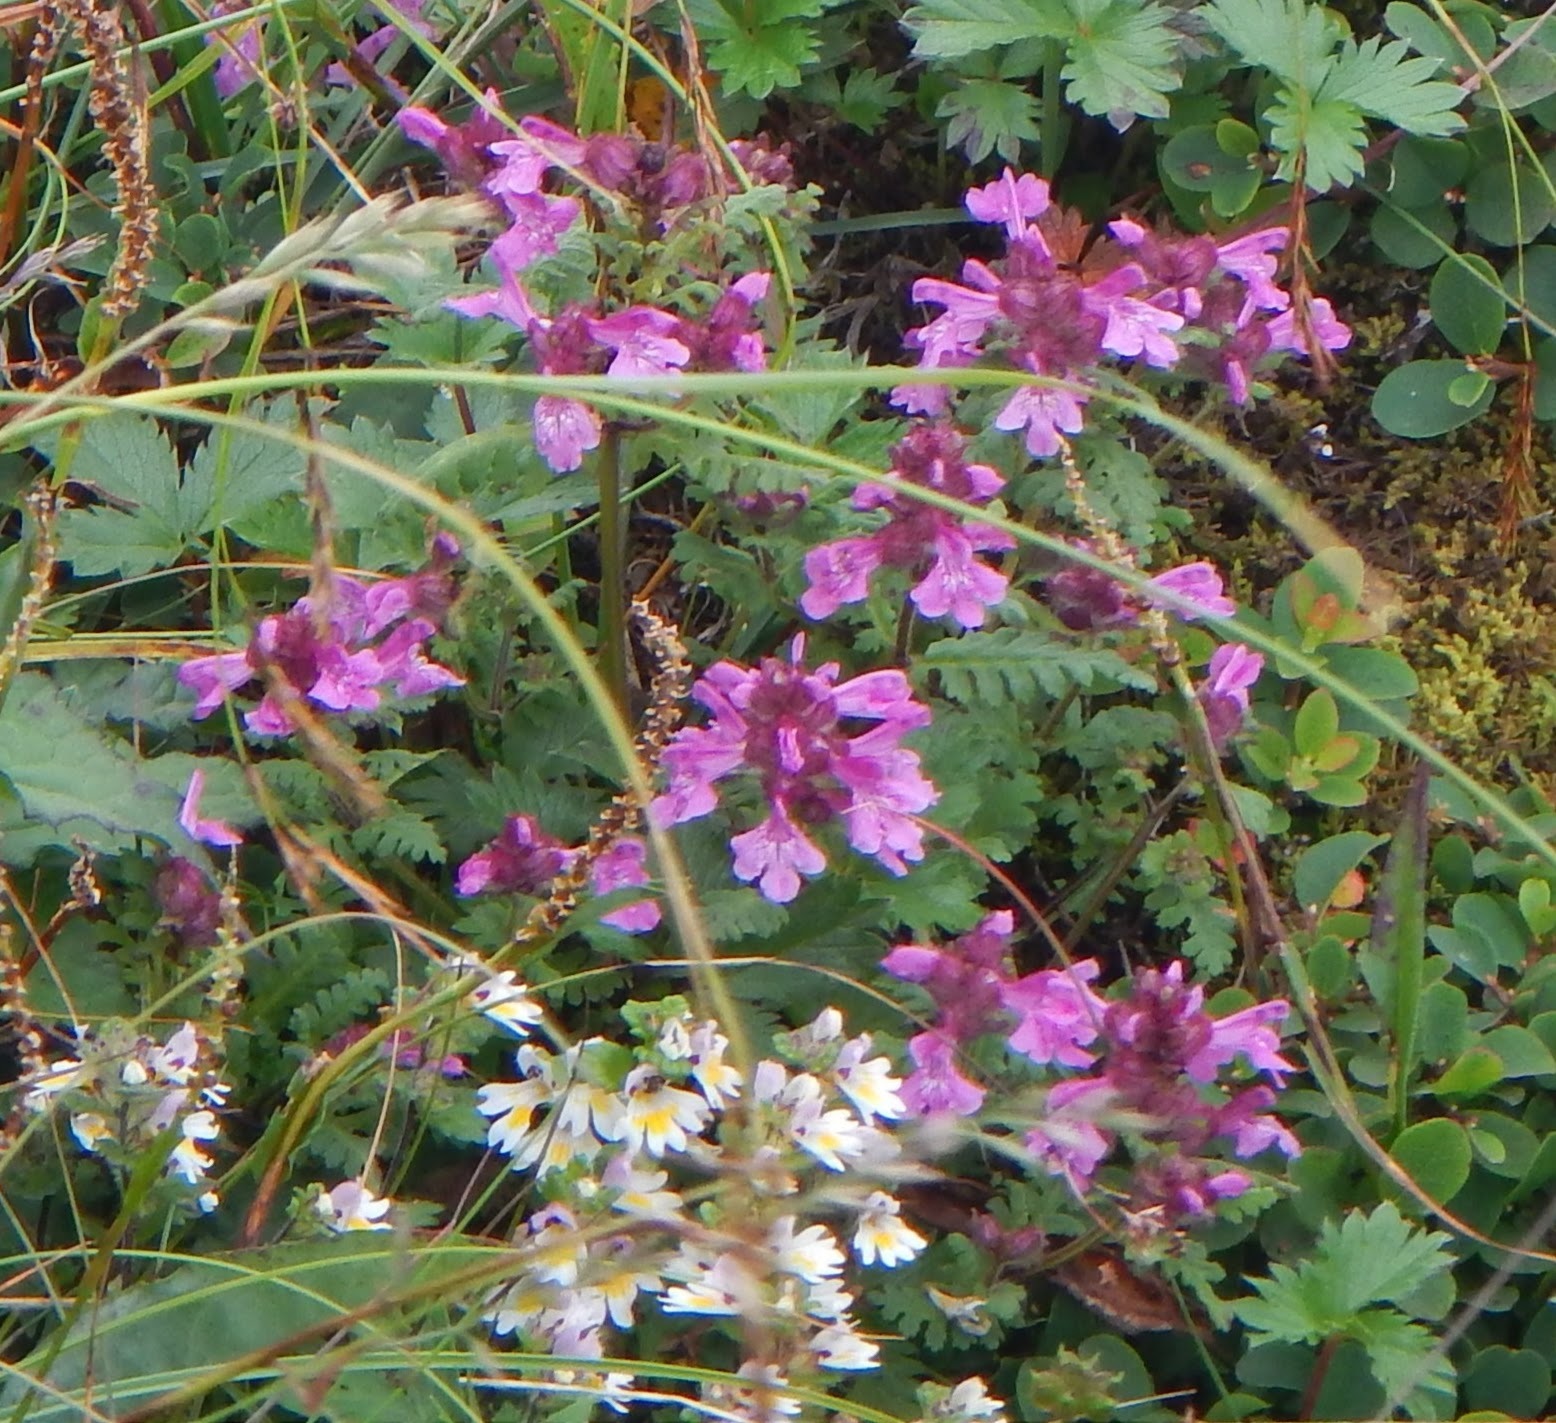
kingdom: Plantae
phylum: Tracheophyta
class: Magnoliopsida
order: Lamiales
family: Orobanchaceae
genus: Pedicularis
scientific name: Pedicularis verticillata
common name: Whorled lousewort
